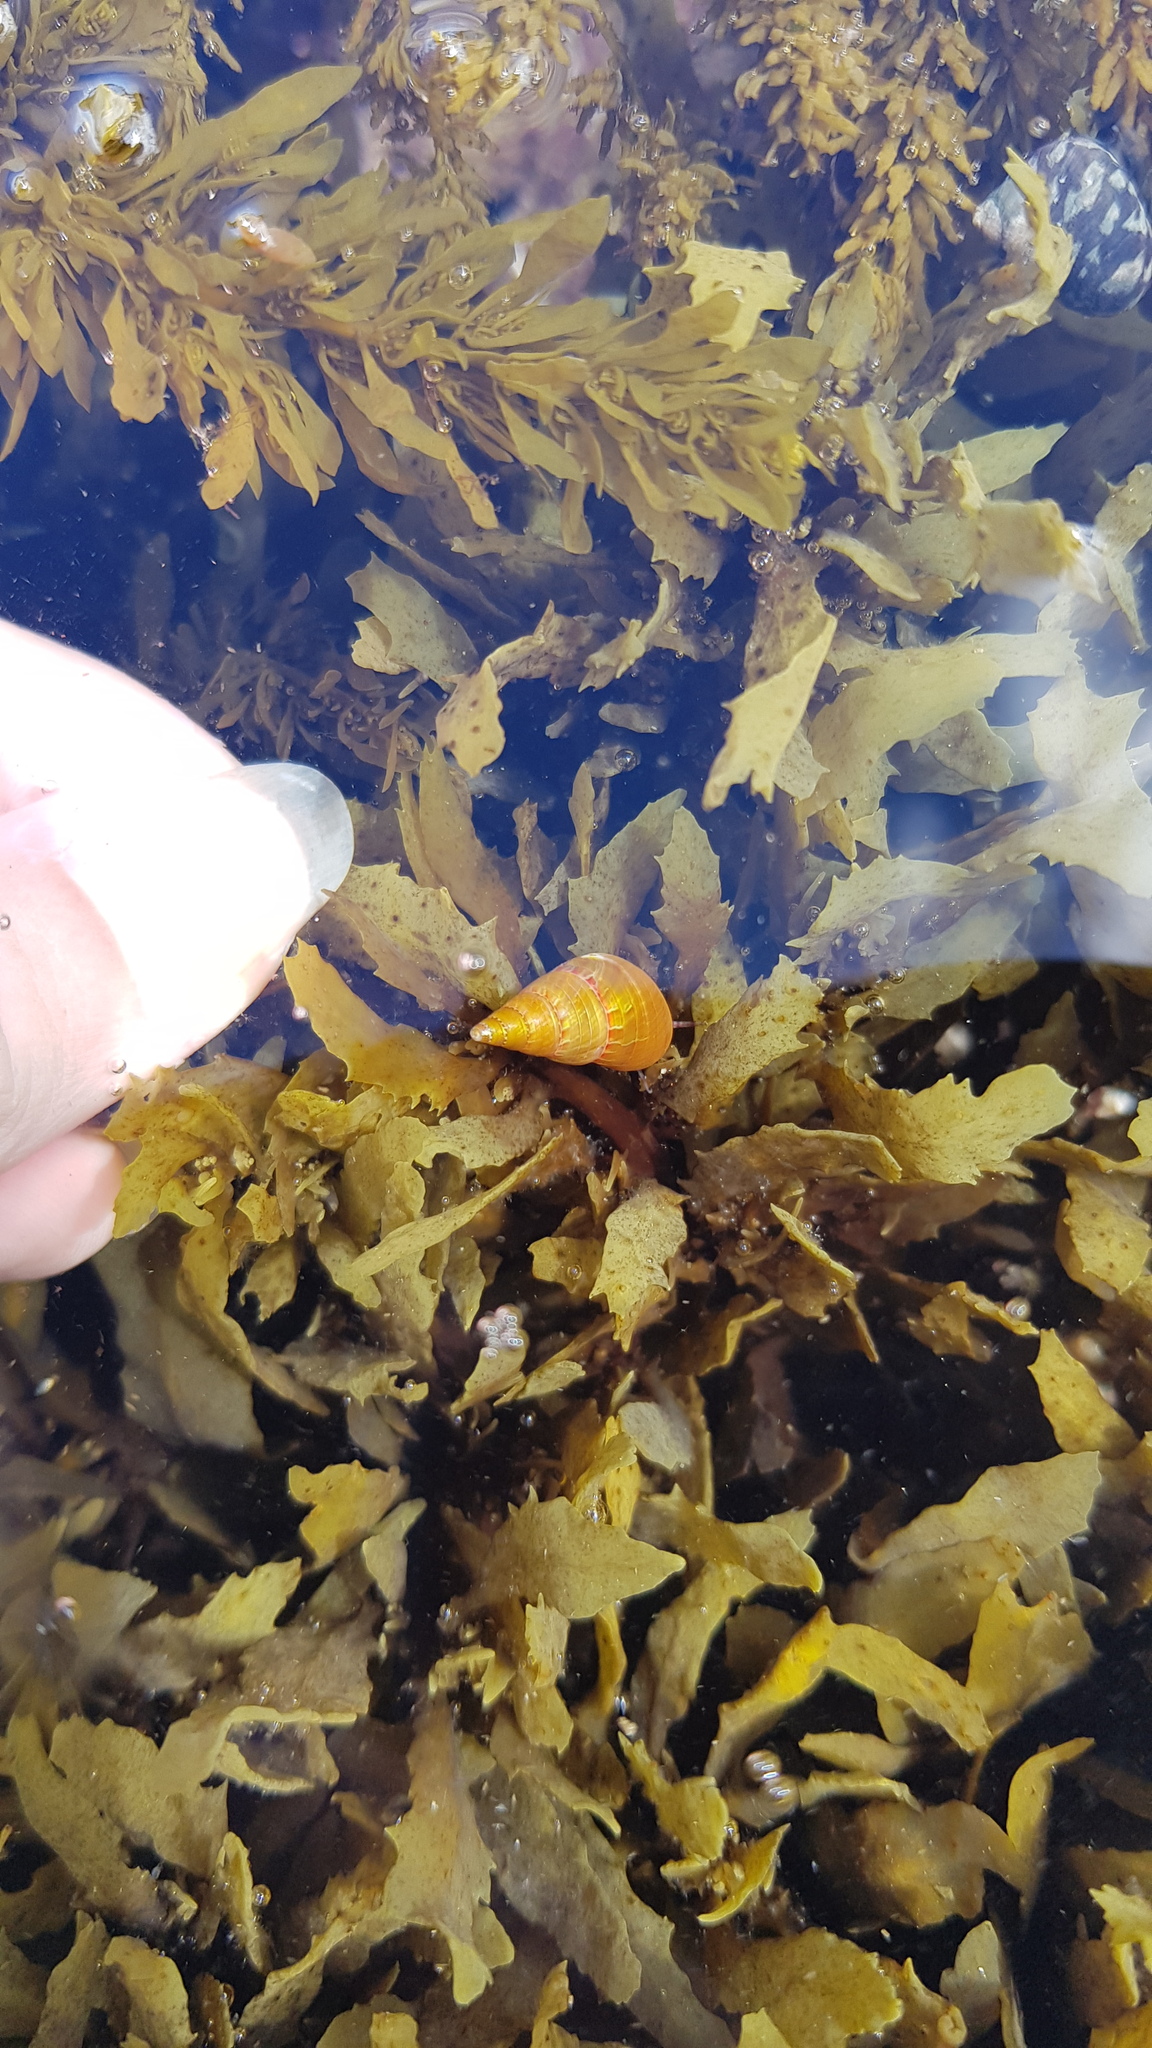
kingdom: Animalia
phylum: Mollusca
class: Gastropoda
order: Trochida
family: Trochidae
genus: Phasianotrochus
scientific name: Phasianotrochus eximius
